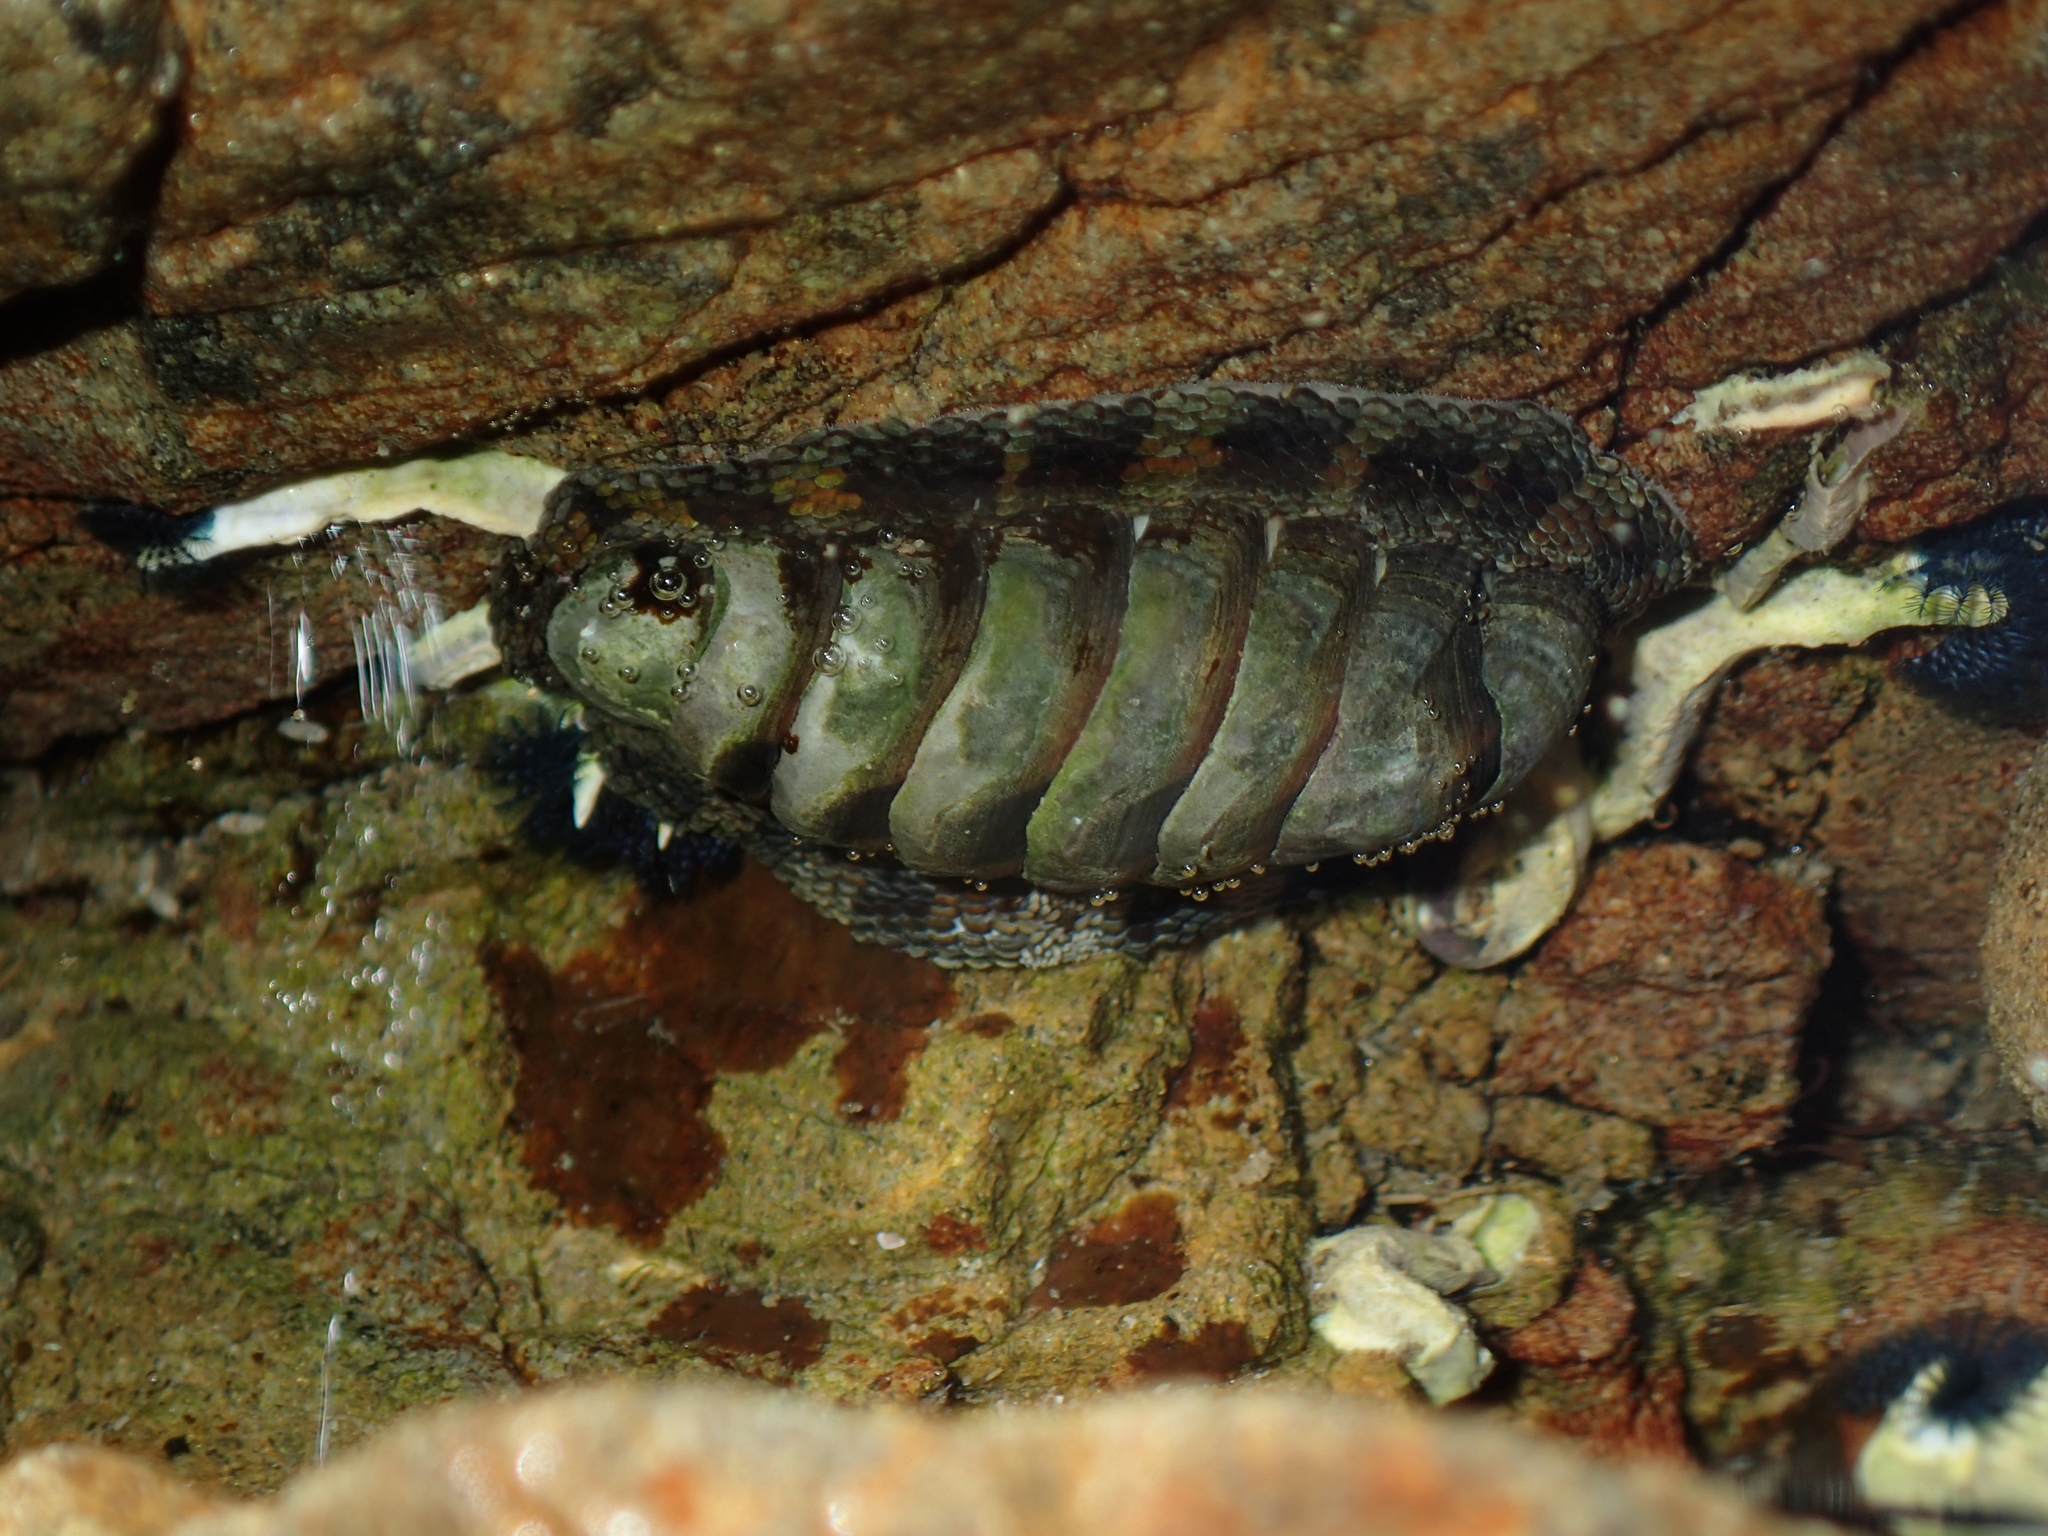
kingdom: Animalia
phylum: Mollusca
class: Polyplacophora
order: Chitonida
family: Chitonidae
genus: Sypharochiton
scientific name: Sypharochiton pelliserpentis
